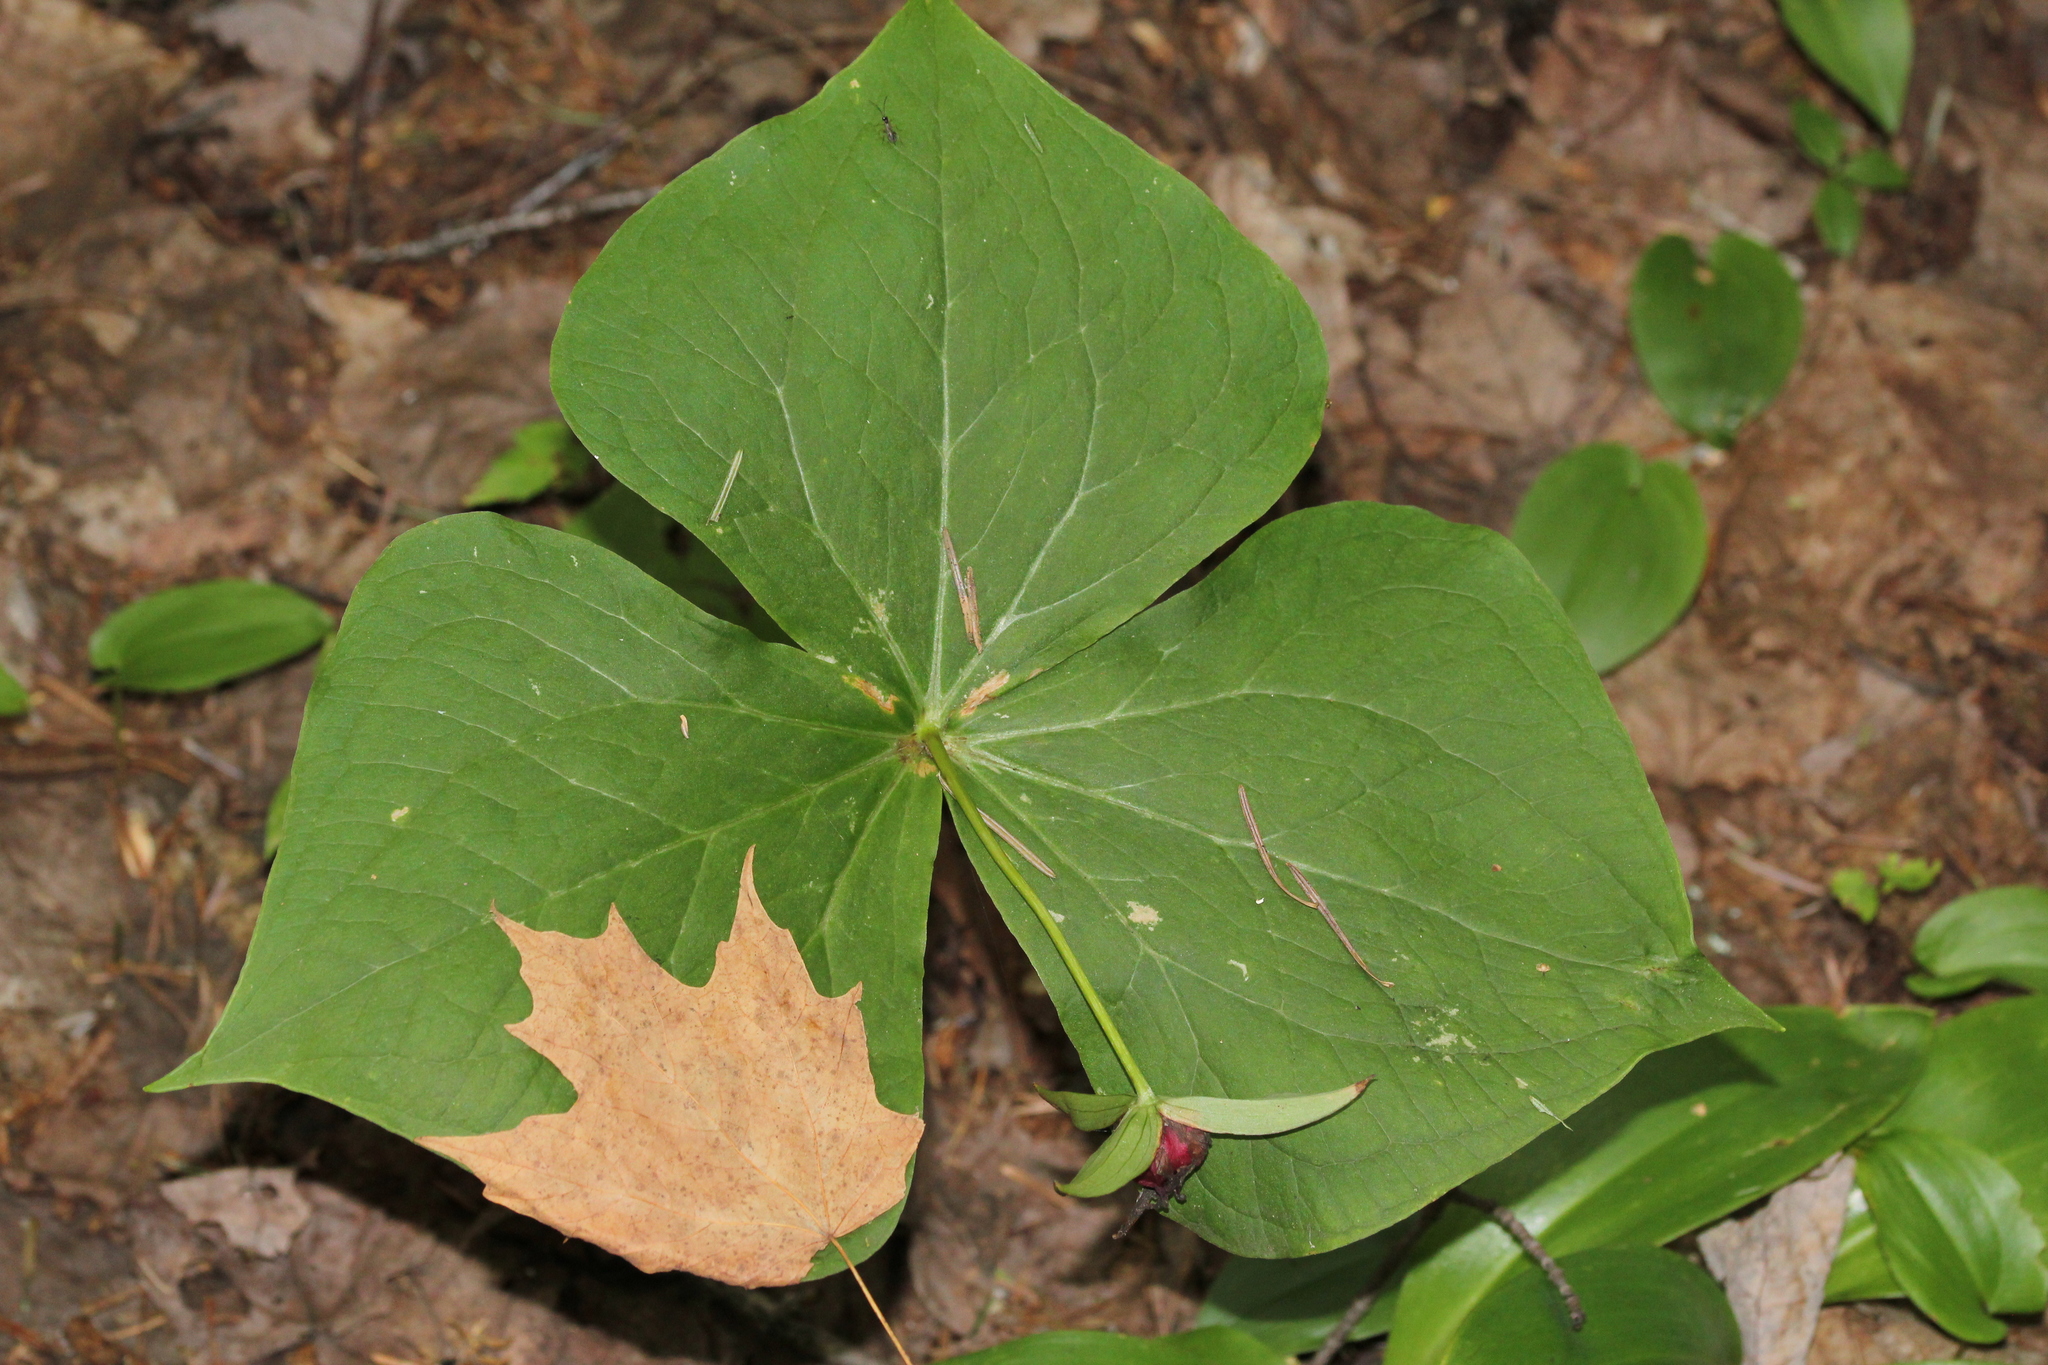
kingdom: Plantae
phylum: Tracheophyta
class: Liliopsida
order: Liliales
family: Melanthiaceae
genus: Trillium
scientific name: Trillium erectum
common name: Purple trillium
